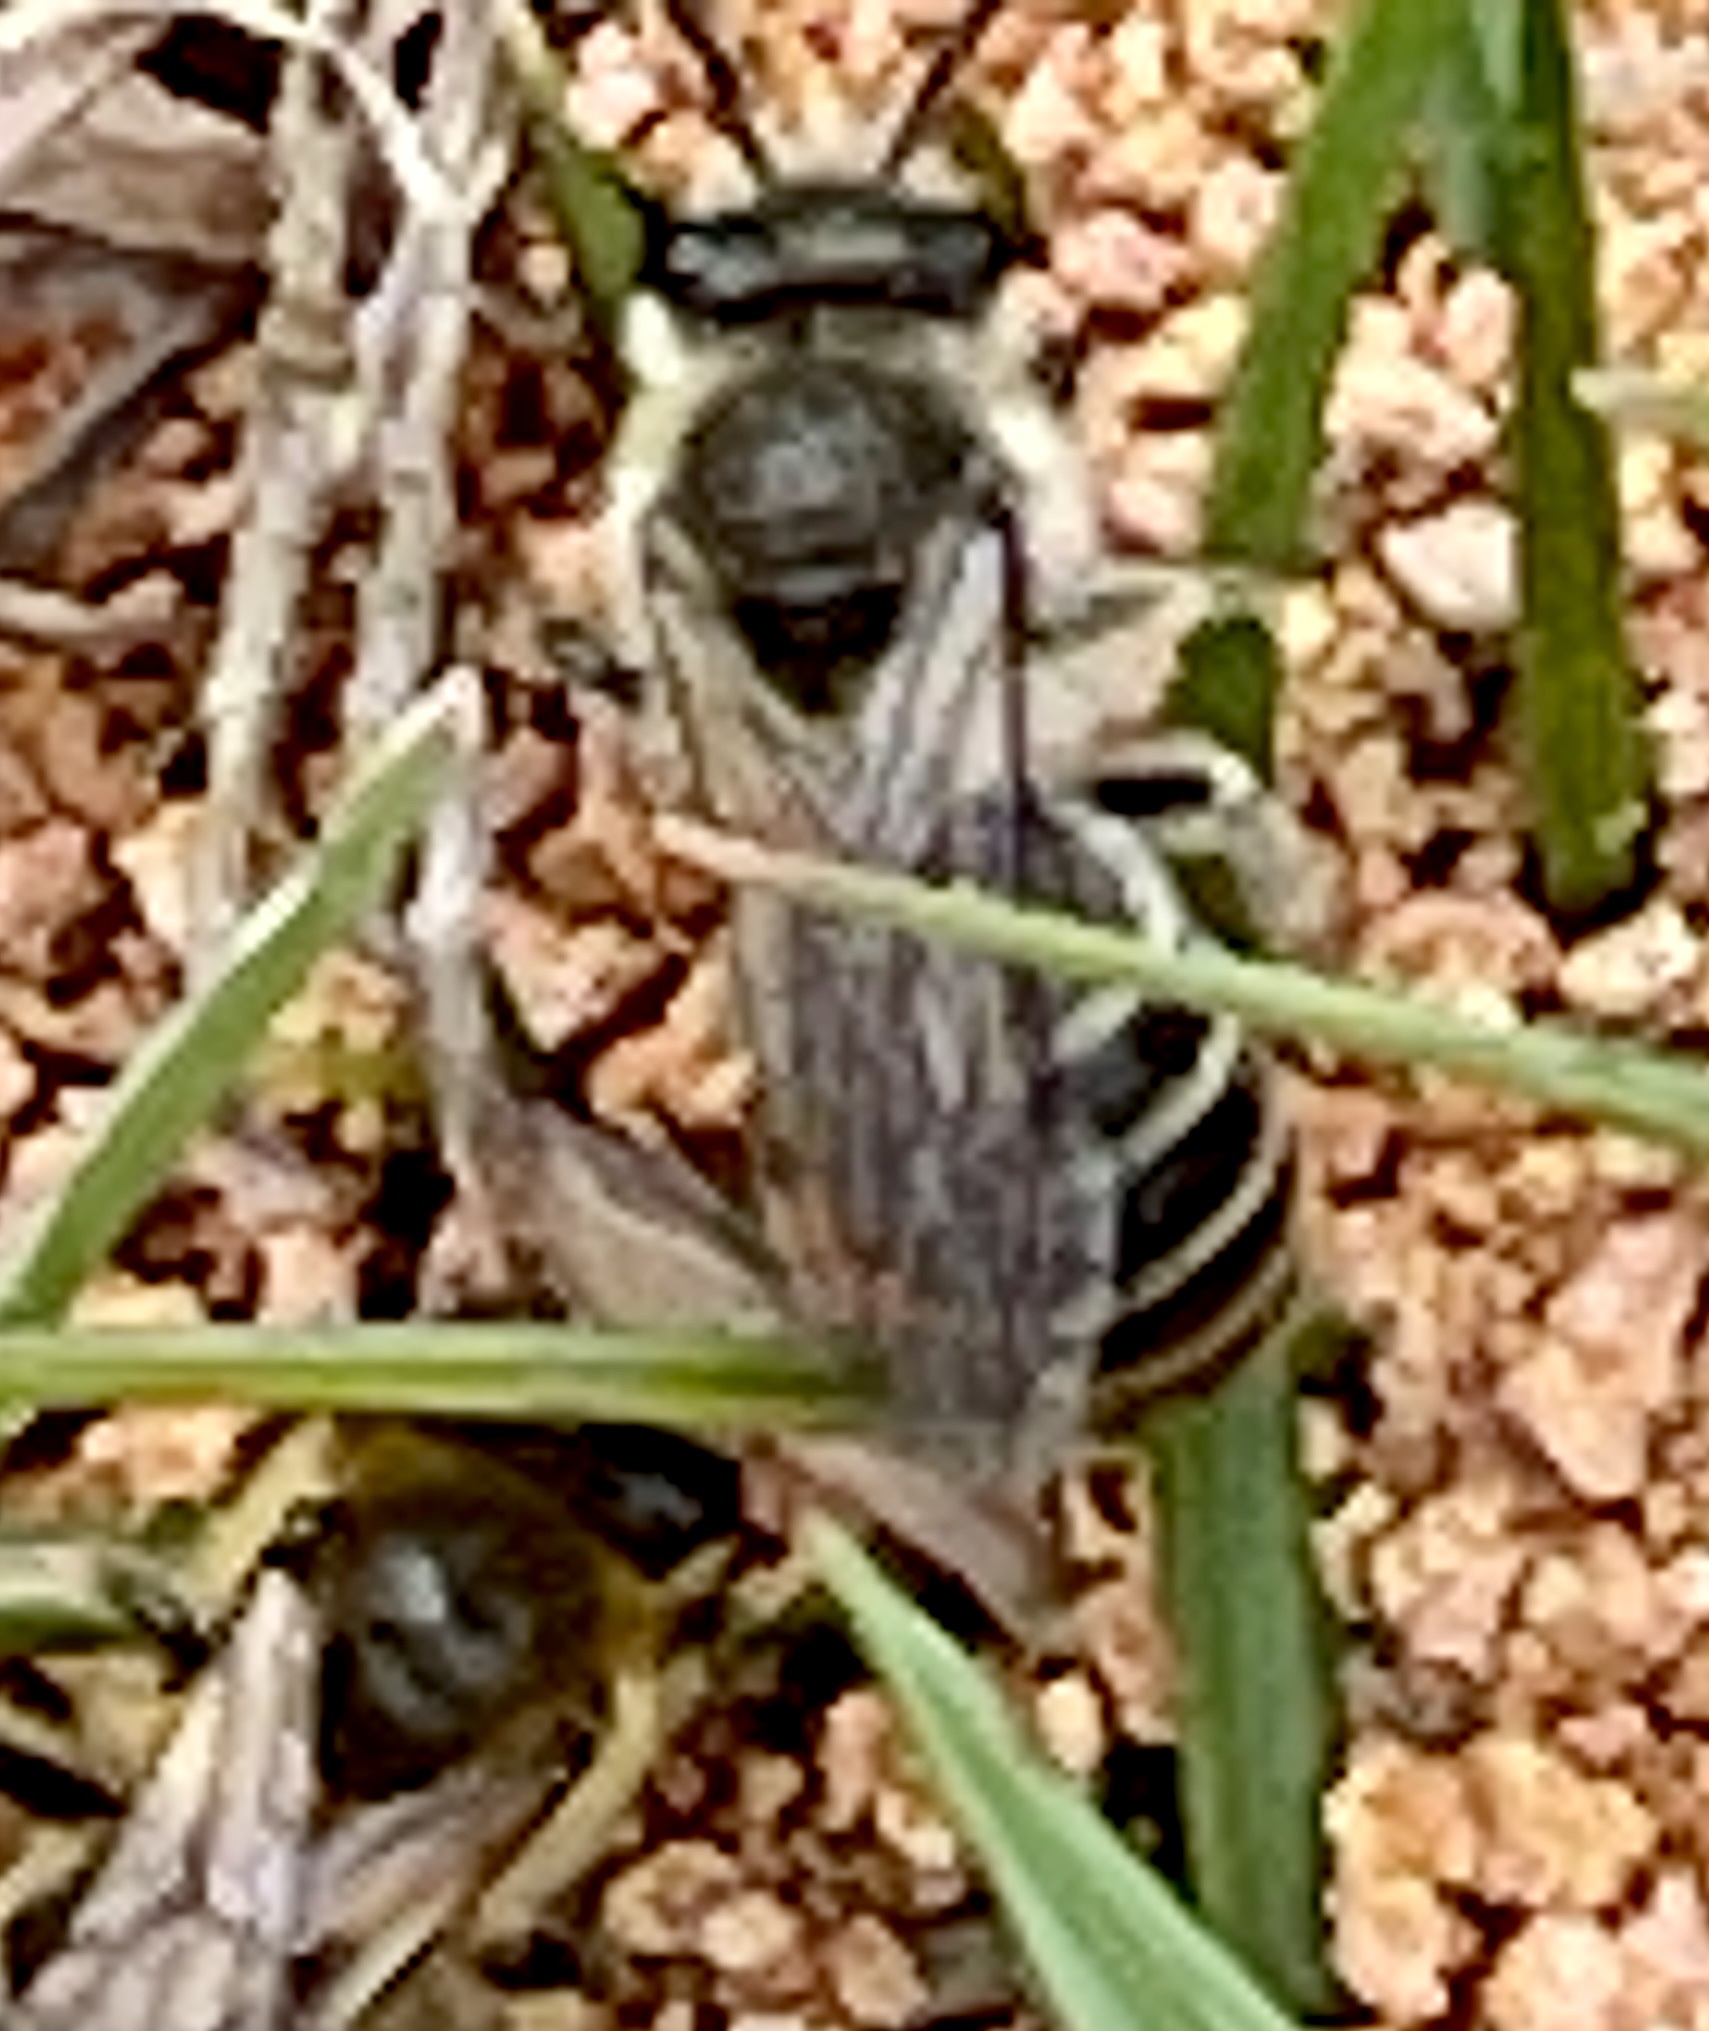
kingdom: Animalia
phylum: Arthropoda
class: Insecta
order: Hymenoptera
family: Colletidae
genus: Colletes
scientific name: Colletes inaequalis
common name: Unequal cellophane bee
